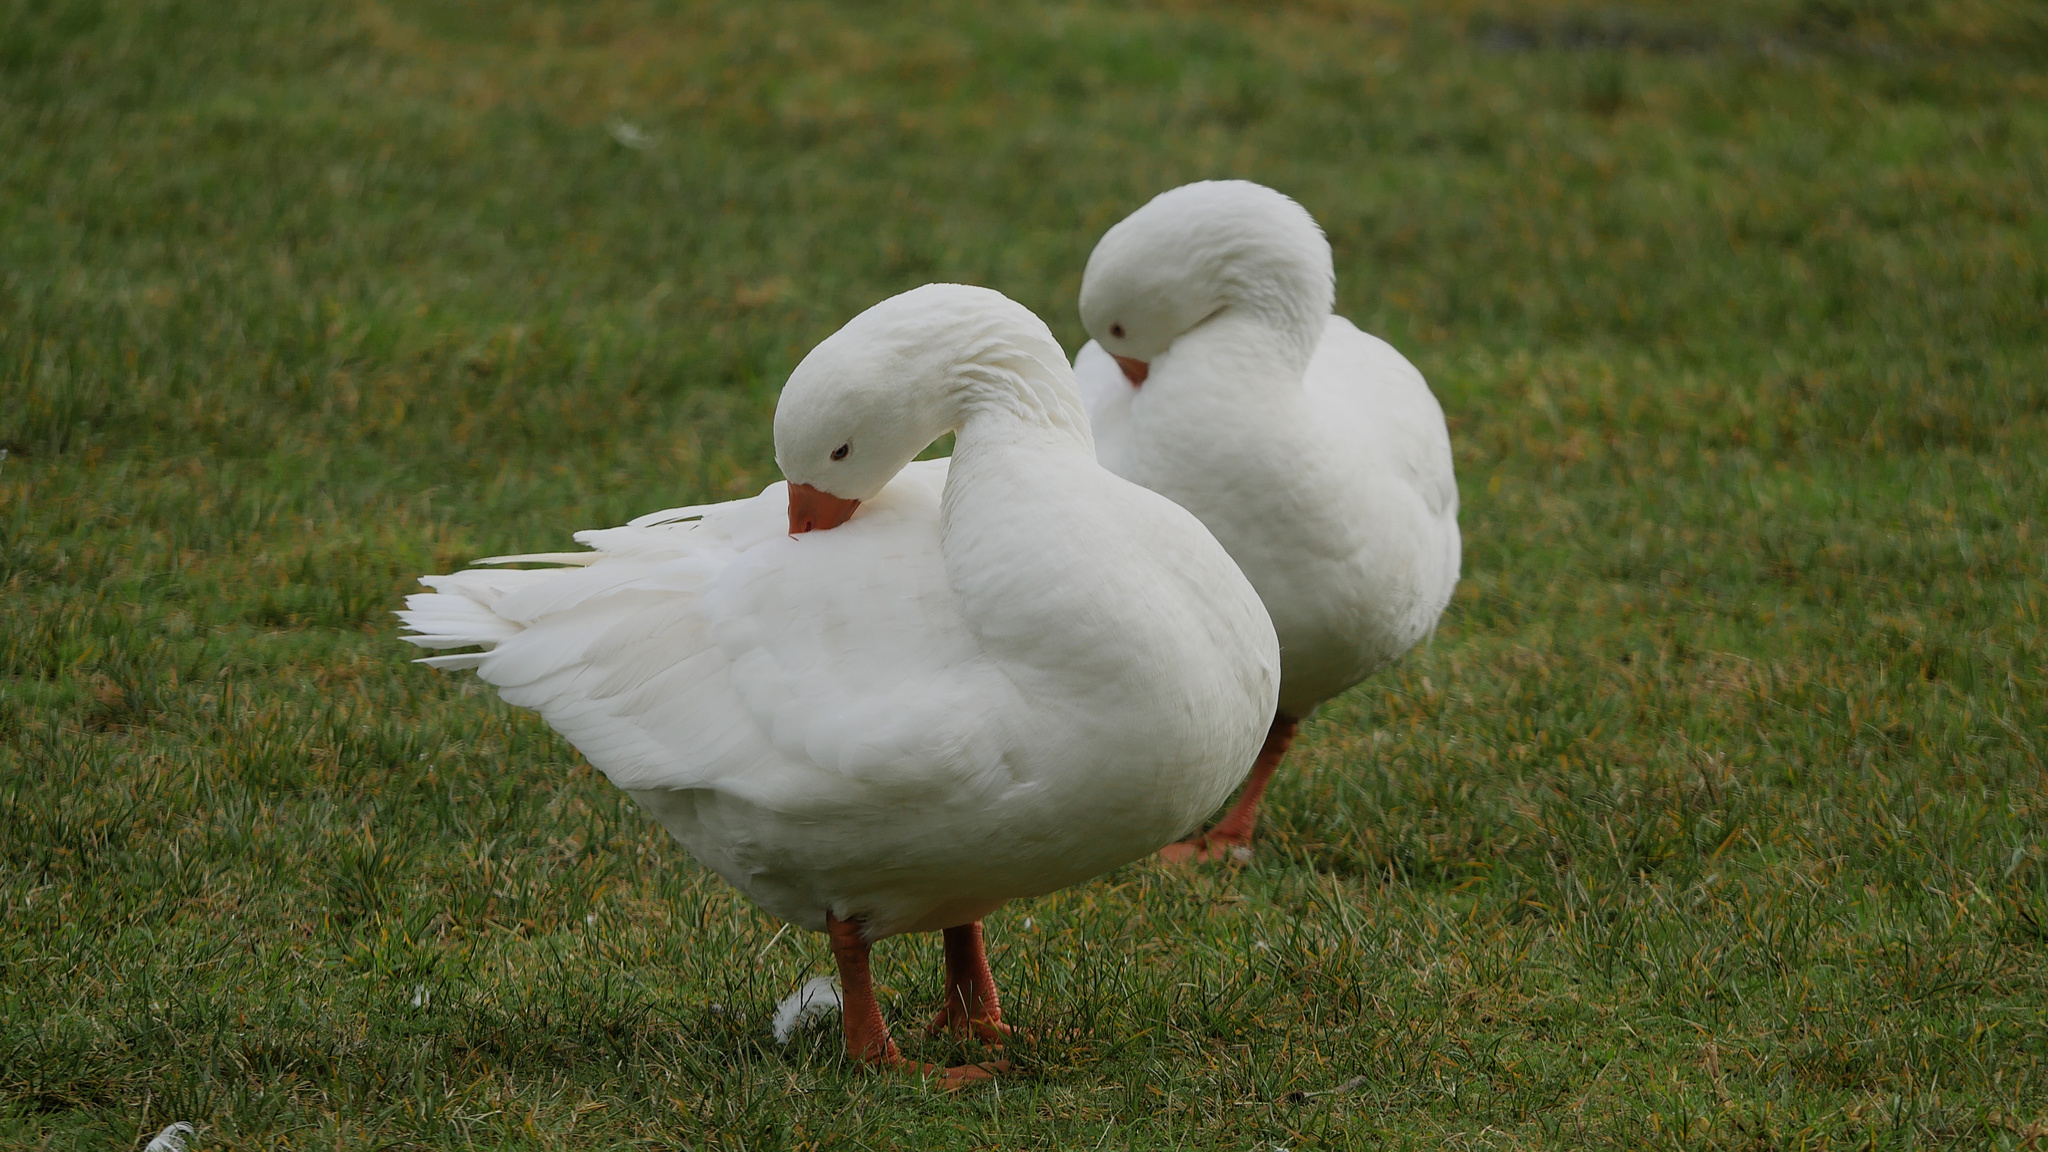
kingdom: Animalia
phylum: Chordata
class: Aves
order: Anseriformes
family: Anatidae
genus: Anser
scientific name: Anser anser
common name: Greylag goose
